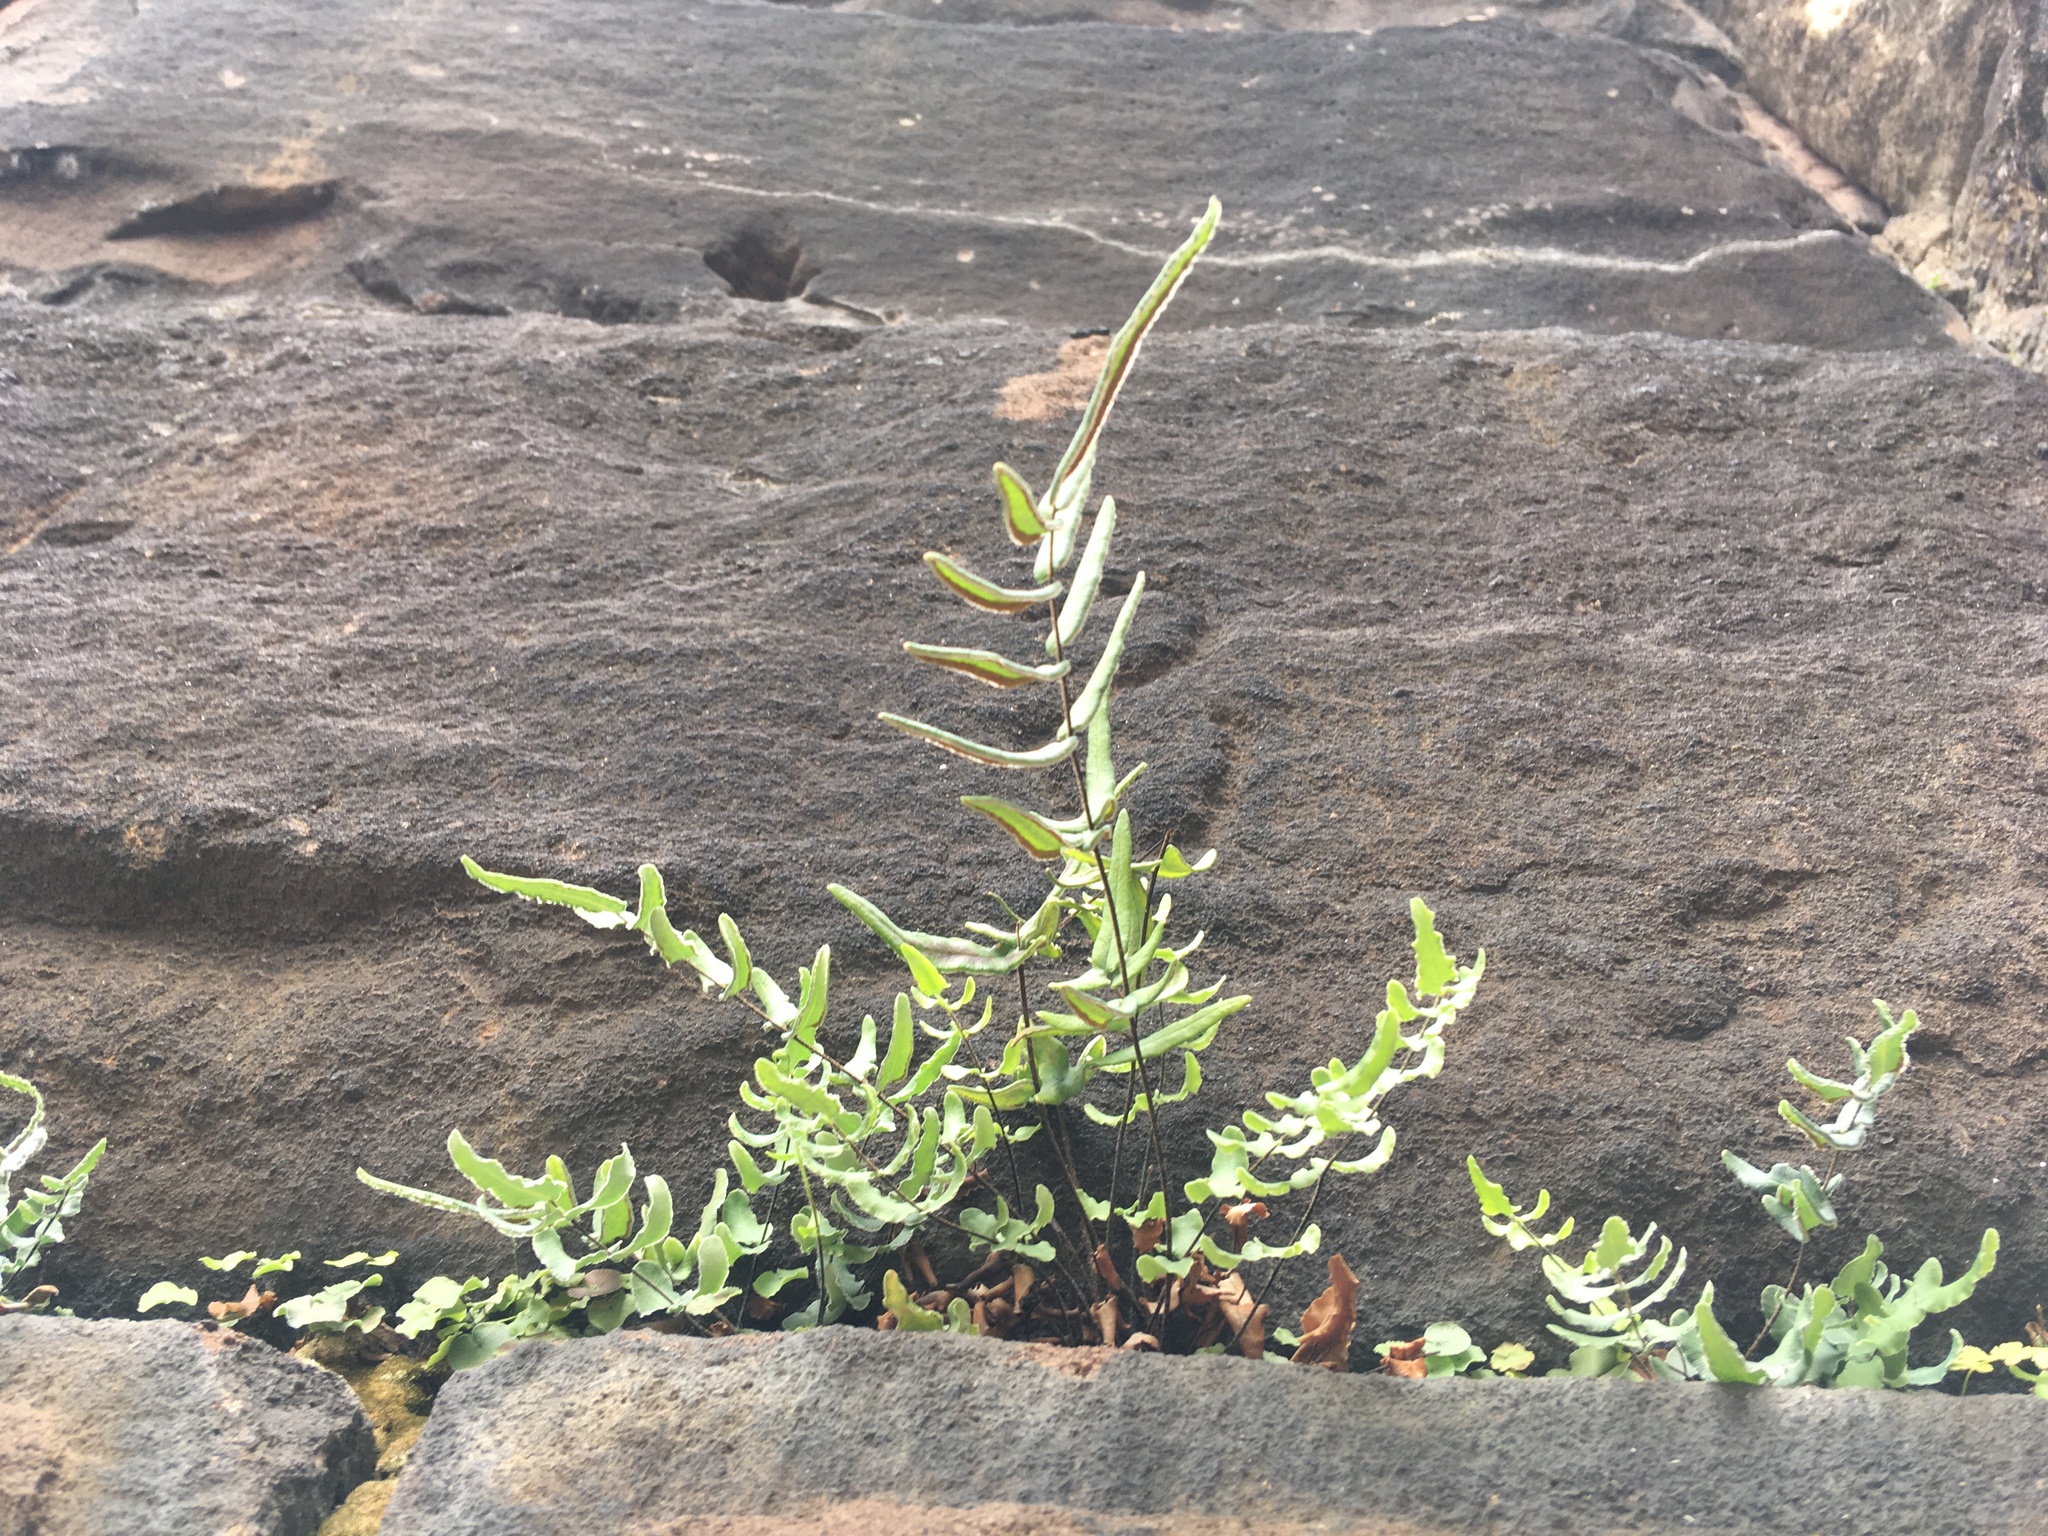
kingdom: Plantae
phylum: Tracheophyta
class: Polypodiopsida
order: Polypodiales
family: Pteridaceae
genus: Pellaea
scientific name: Pellaea atropurpurea
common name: Hairy cliffbrake
